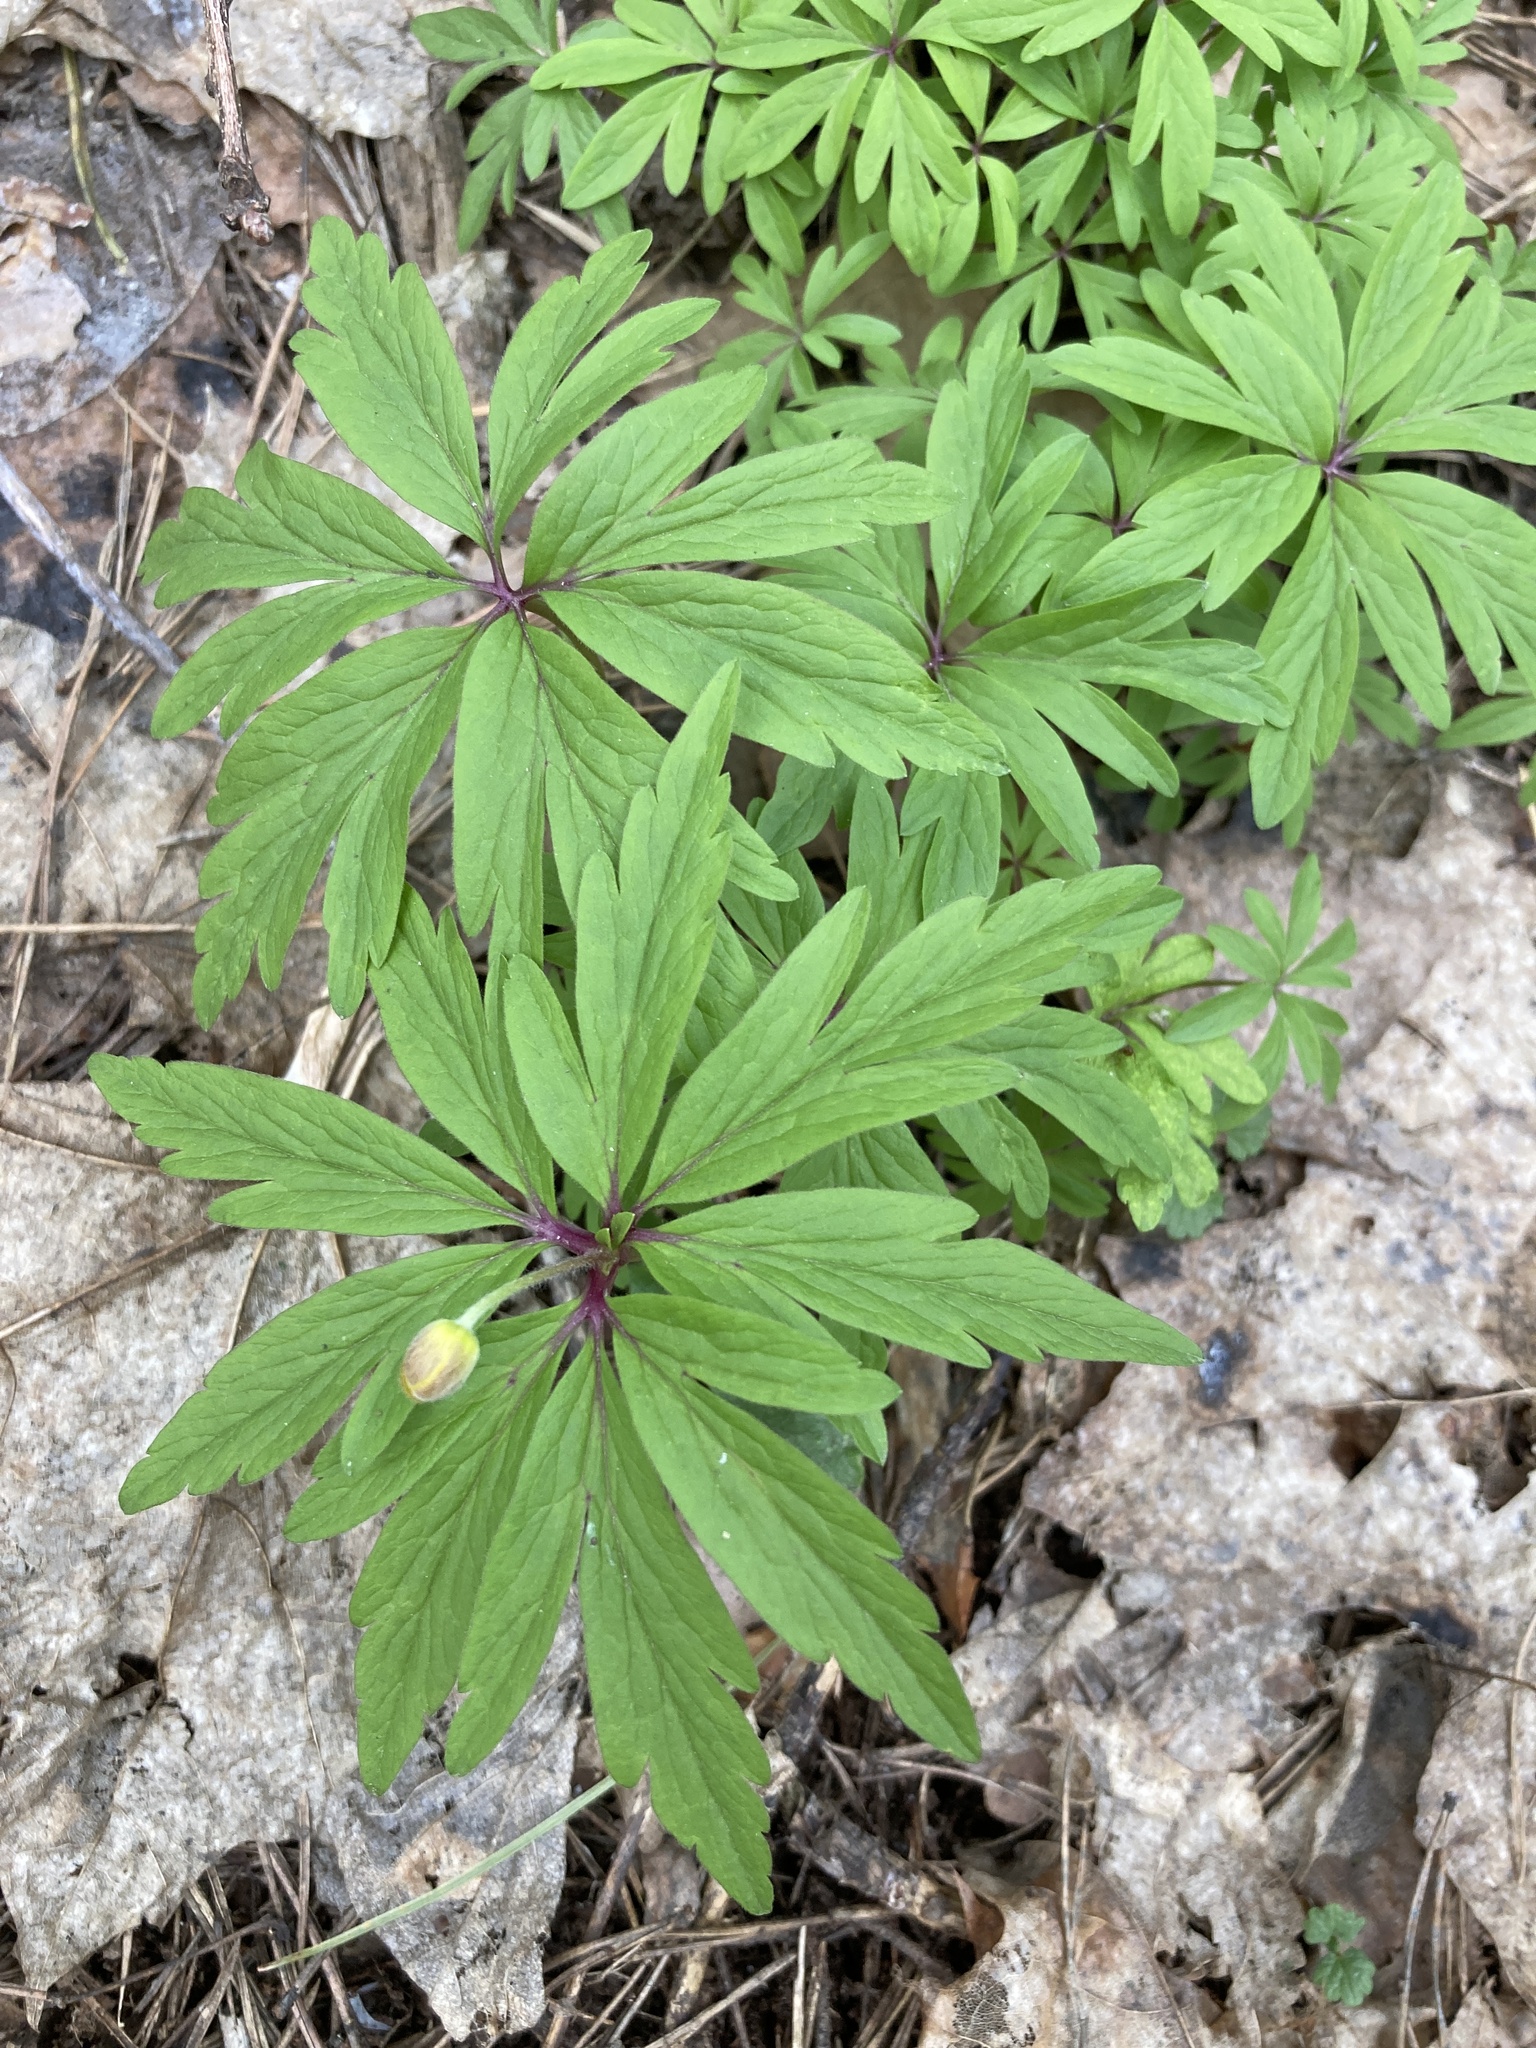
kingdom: Plantae
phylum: Tracheophyta
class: Magnoliopsida
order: Ranunculales
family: Ranunculaceae
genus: Anemone
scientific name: Anemone ranunculoides
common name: Yellow anemone
